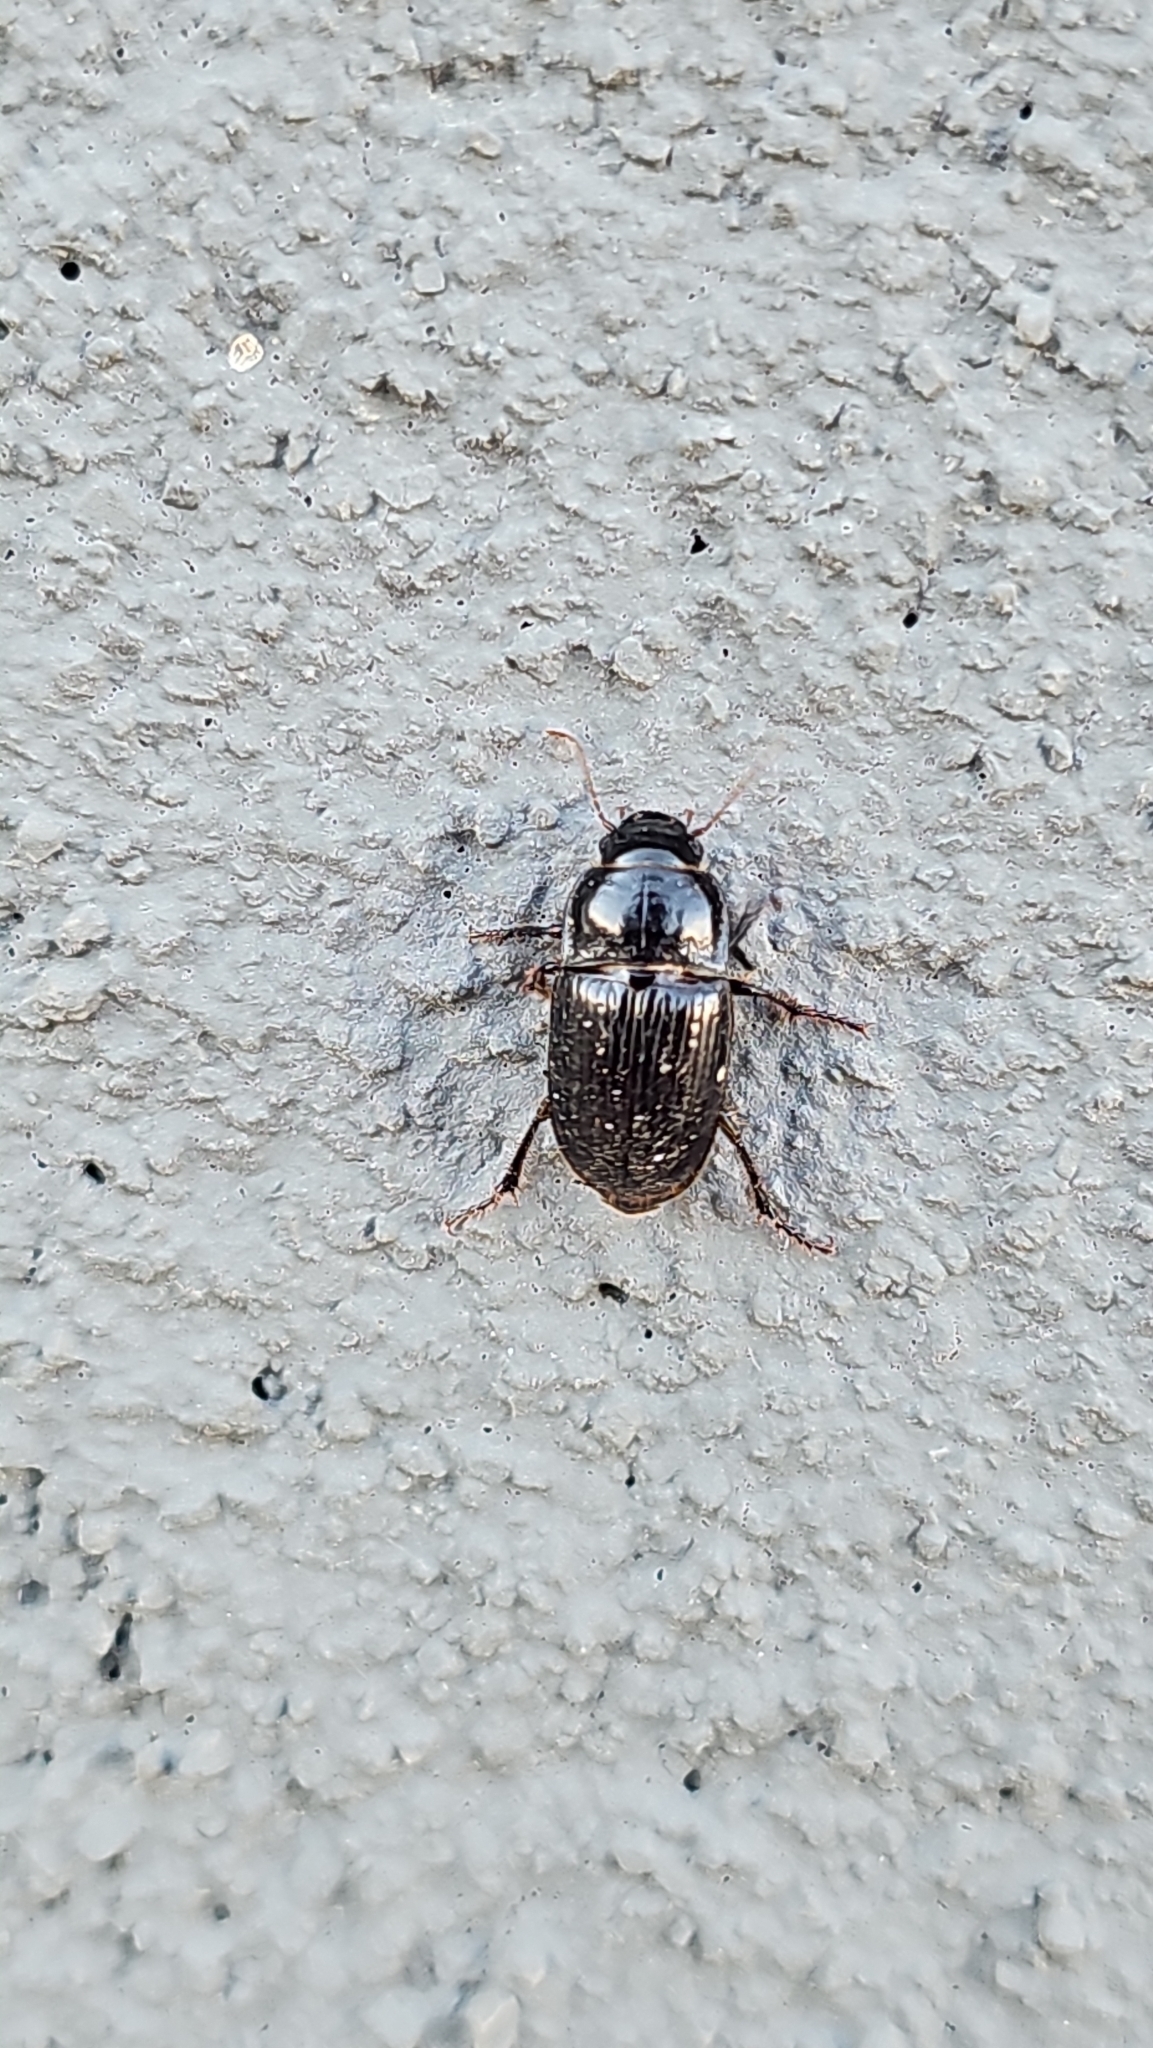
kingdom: Animalia
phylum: Arthropoda
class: Insecta
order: Coleoptera
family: Carabidae
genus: Euryderus
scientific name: Euryderus grossus
